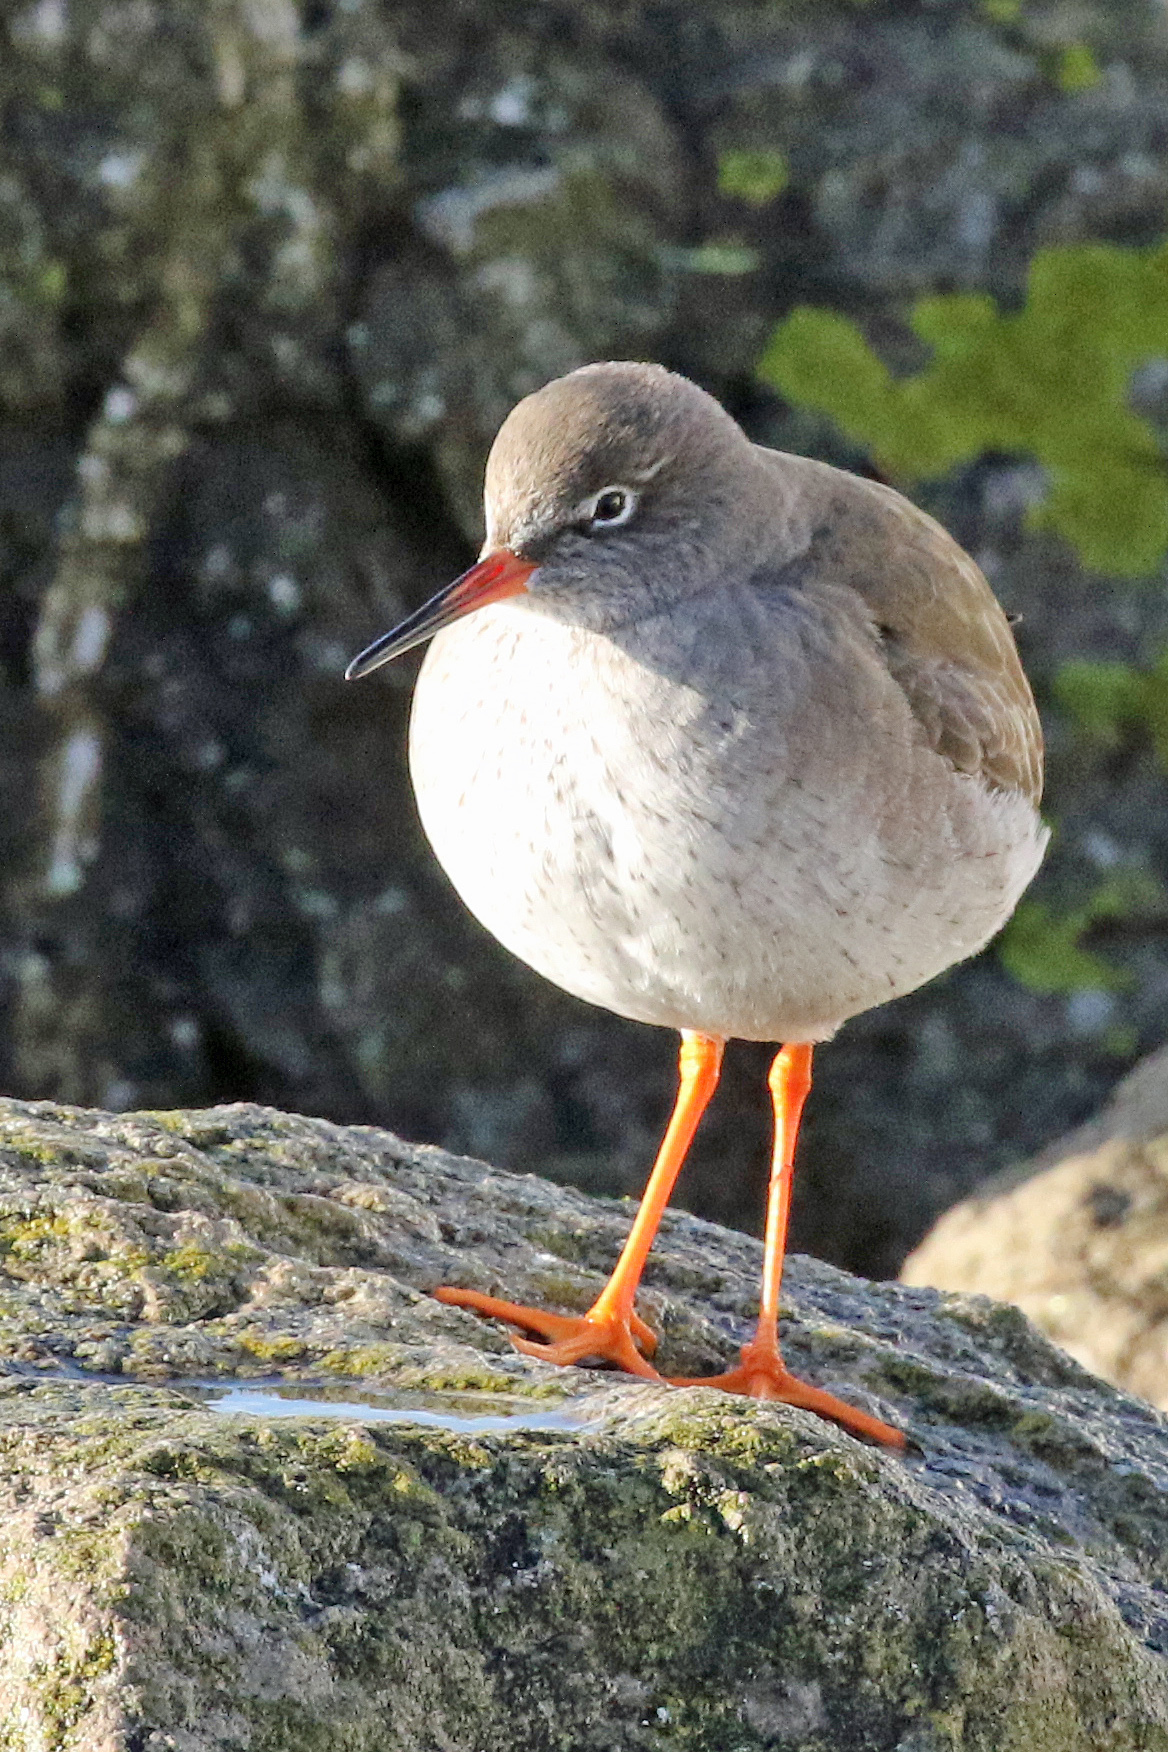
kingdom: Animalia
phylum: Chordata
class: Aves
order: Charadriiformes
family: Scolopacidae
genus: Tringa
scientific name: Tringa totanus
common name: Common redshank
